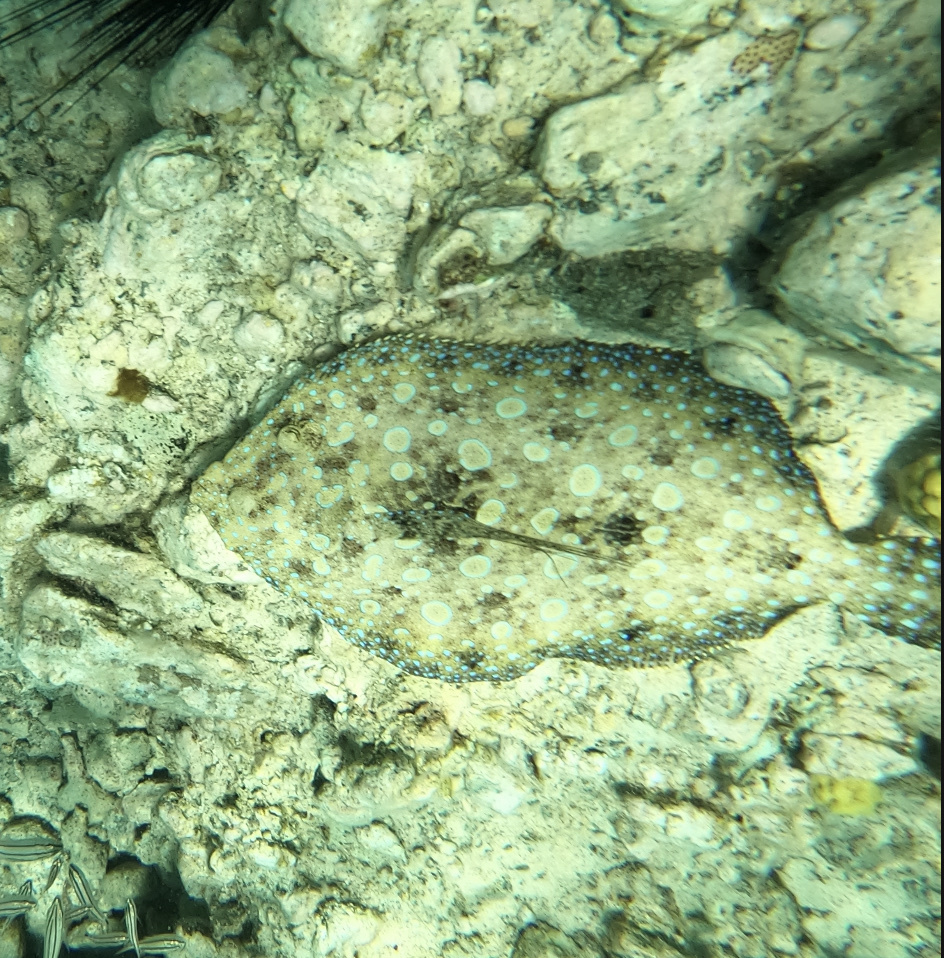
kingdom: Animalia
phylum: Chordata
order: Pleuronectiformes
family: Bothidae
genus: Bothus
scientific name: Bothus lunatus
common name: Peacock flounder
